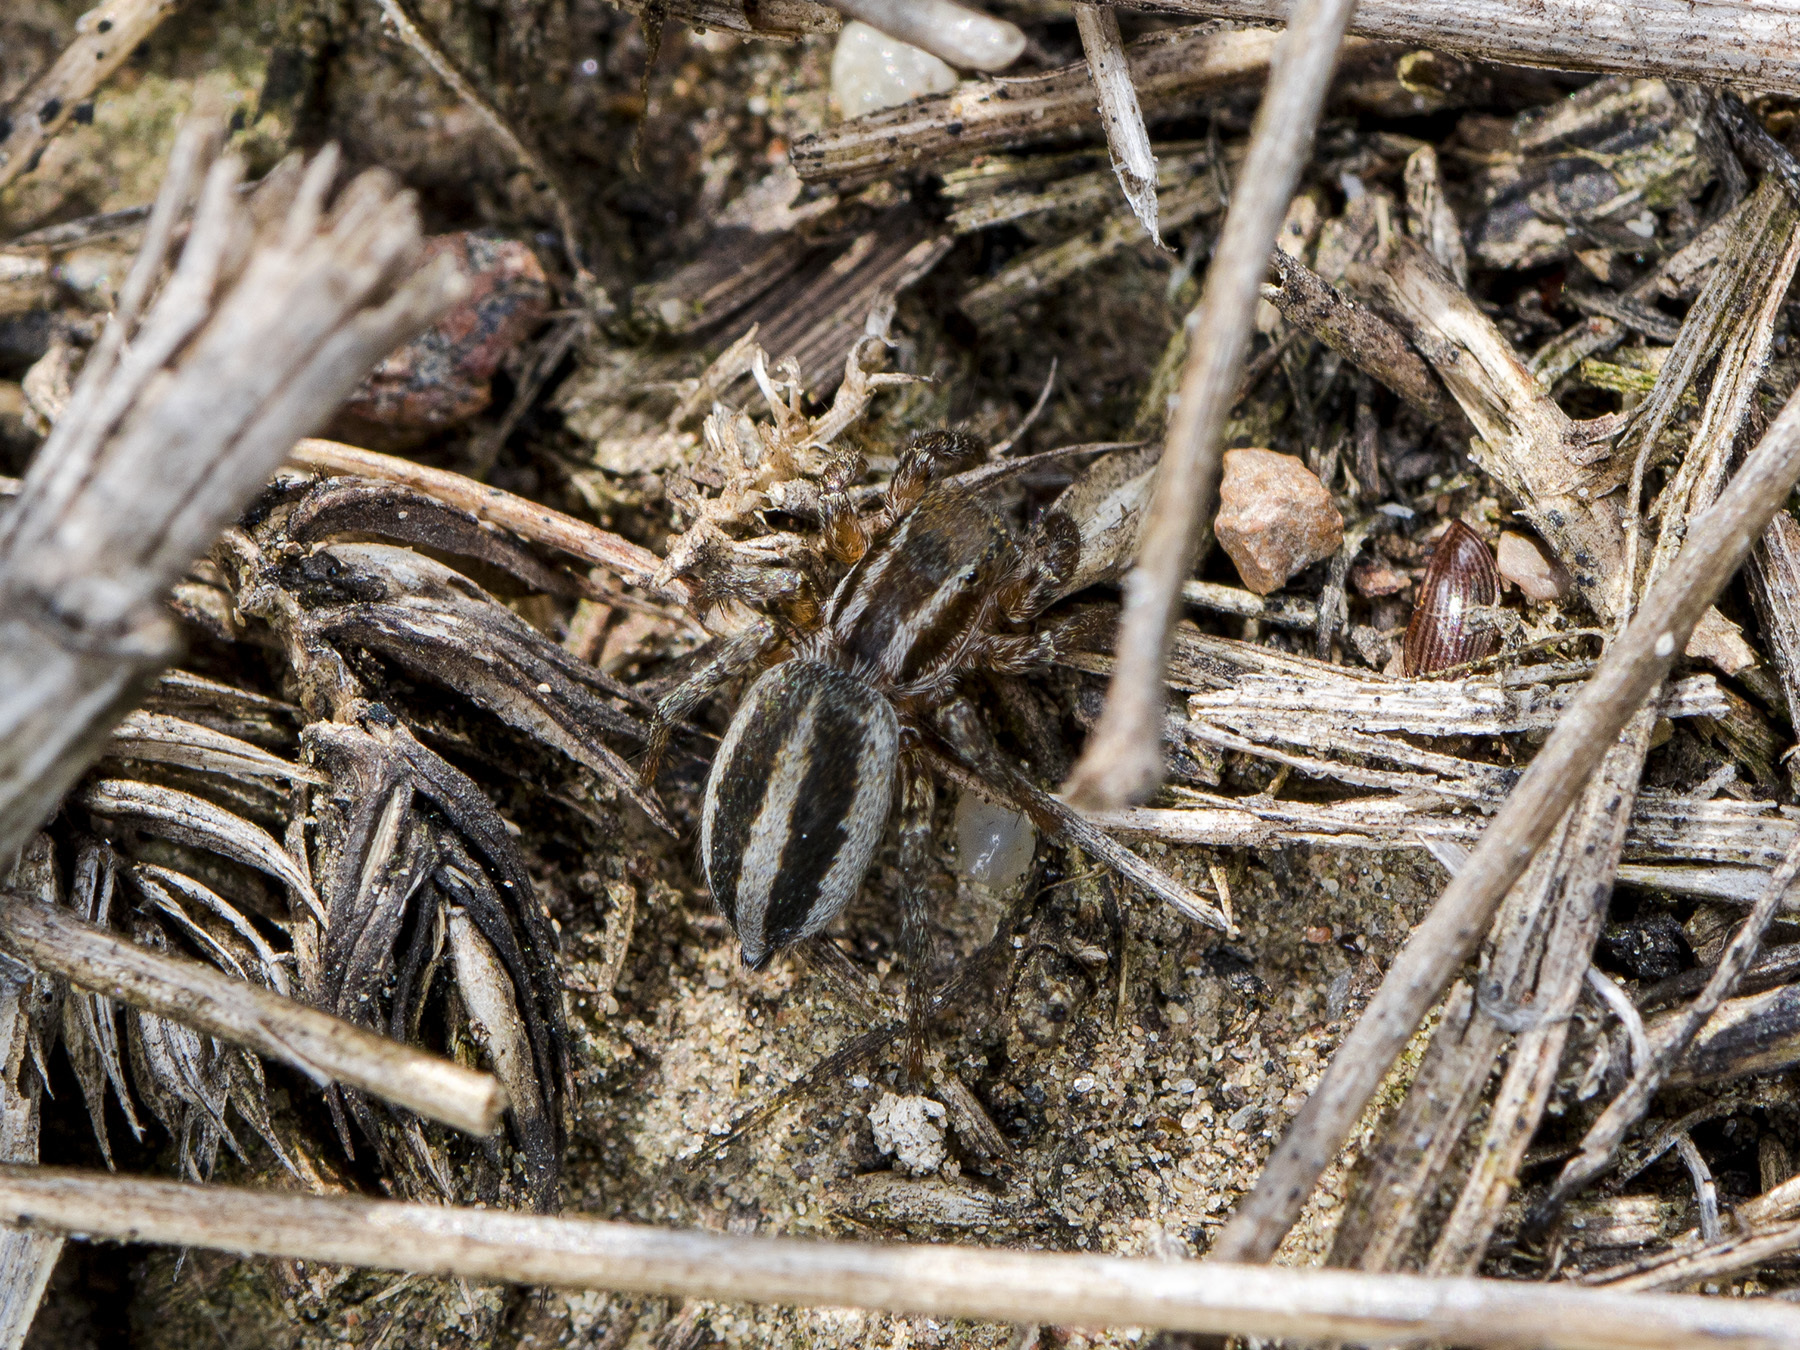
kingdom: Animalia
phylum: Arthropoda
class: Arachnida
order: Araneae
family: Salticidae
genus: Phlegra
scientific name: Phlegra fasciata
